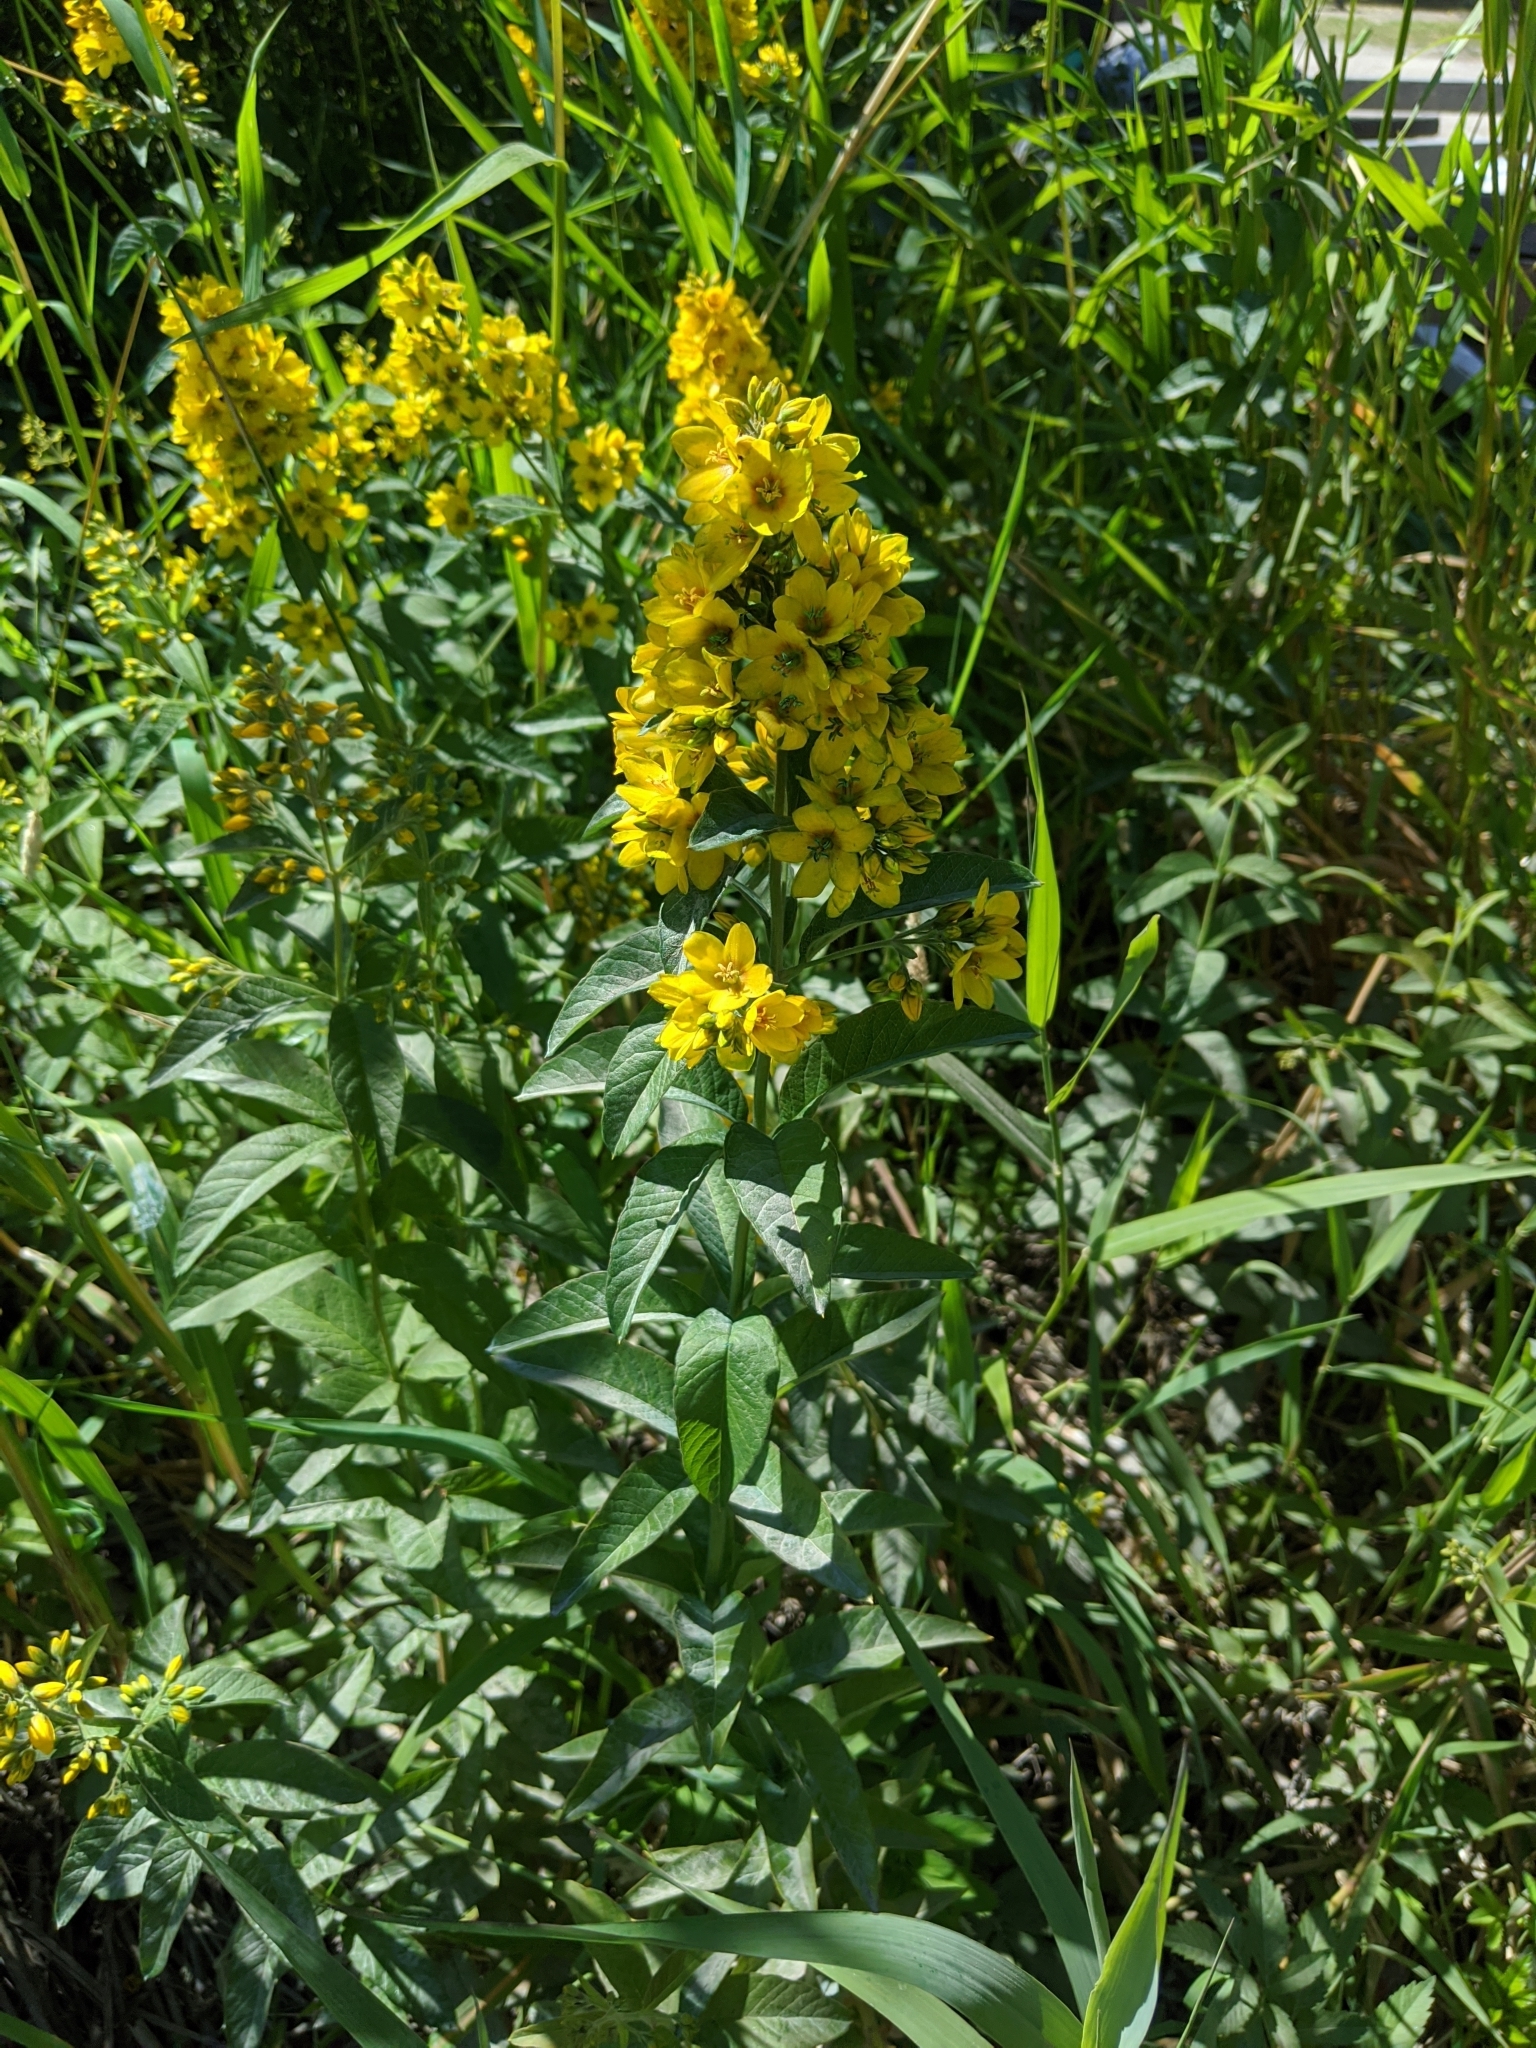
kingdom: Plantae
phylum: Tracheophyta
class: Magnoliopsida
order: Ericales
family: Primulaceae
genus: Lysimachia
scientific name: Lysimachia vulgaris
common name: Yellow loosestrife
